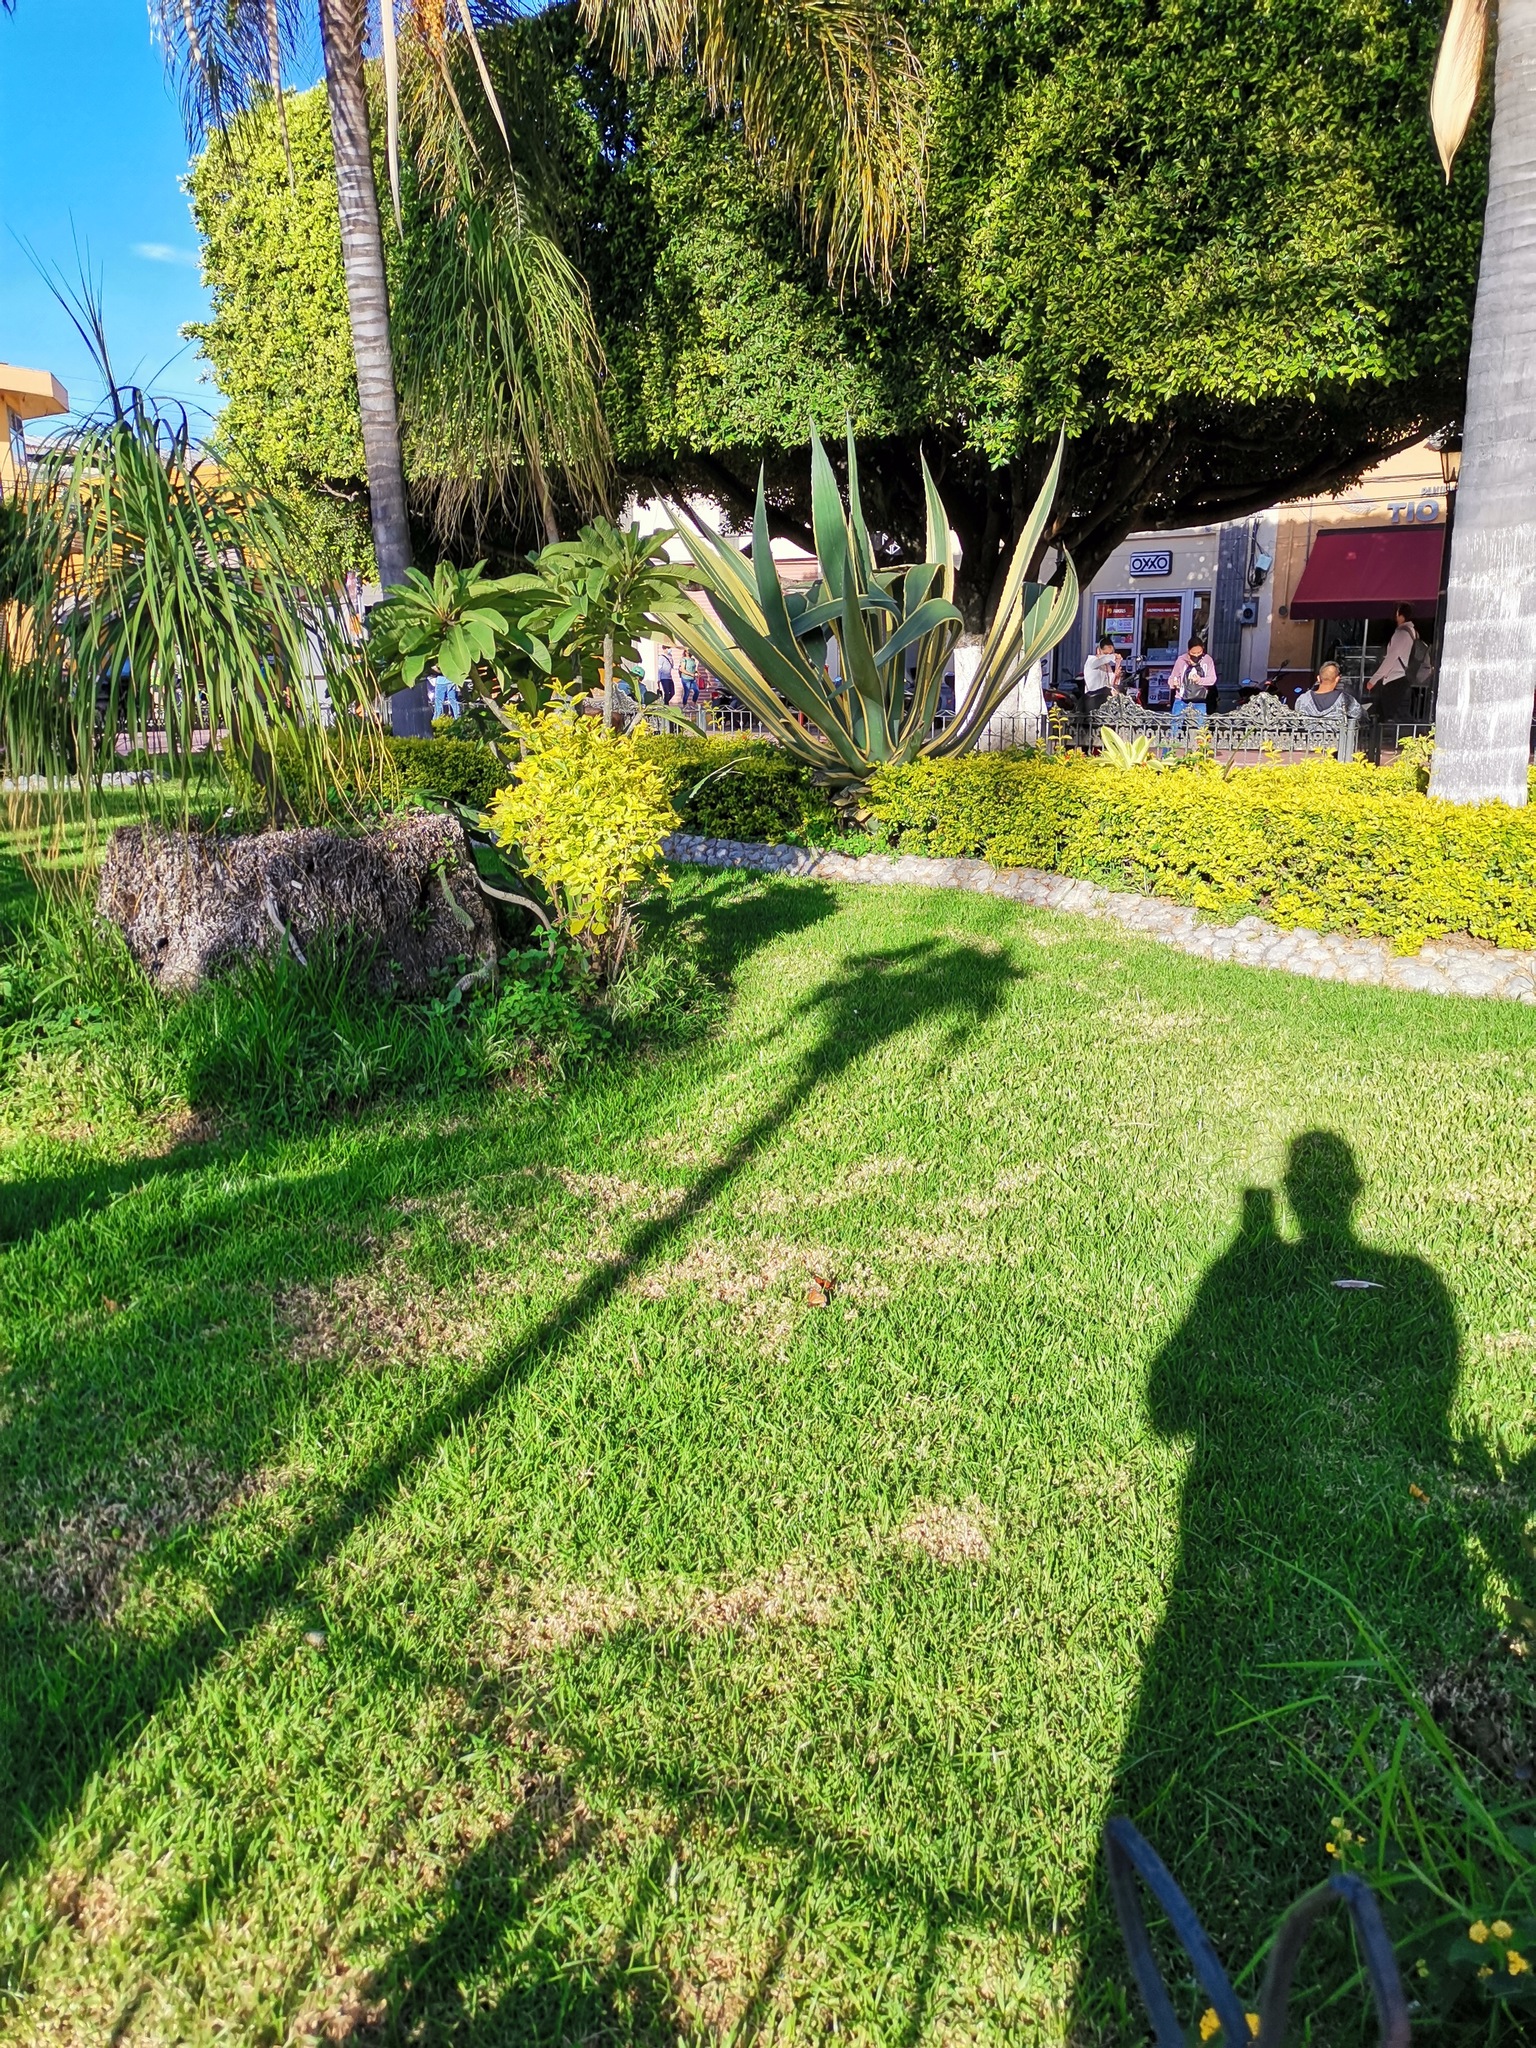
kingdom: Animalia
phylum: Arthropoda
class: Insecta
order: Lepidoptera
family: Nymphalidae
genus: Danaus
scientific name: Danaus plexippus
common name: Monarch
